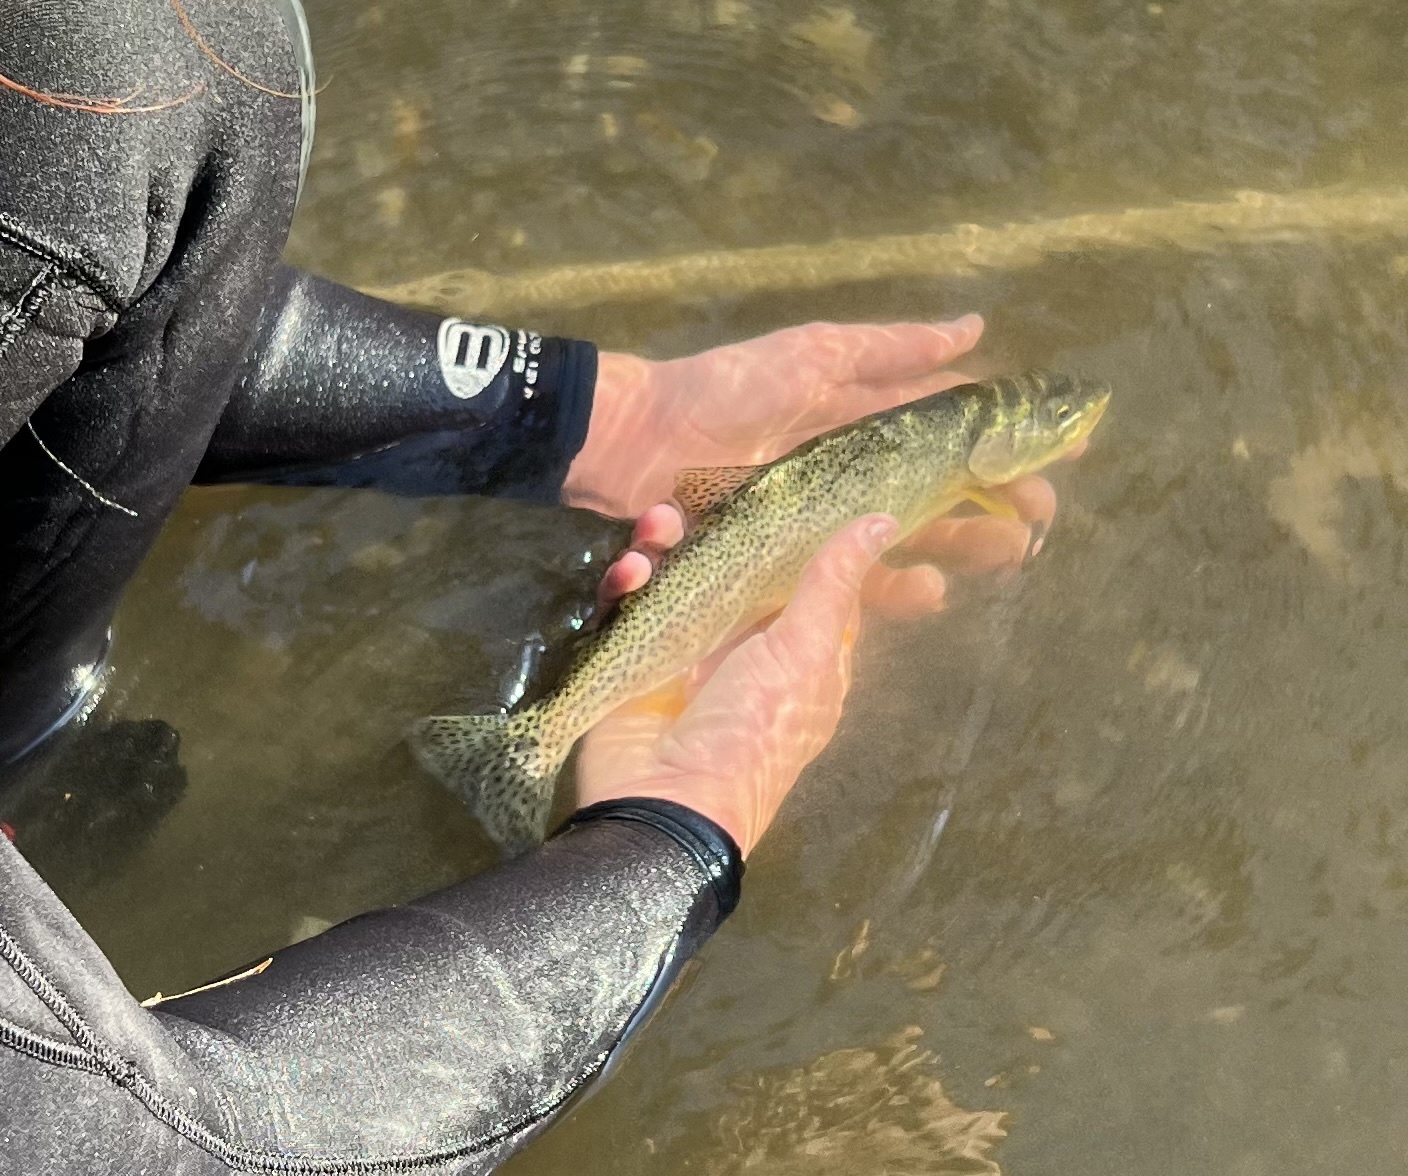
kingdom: Animalia
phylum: Chordata
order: Salmoniformes
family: Salmonidae
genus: Oncorhynchus
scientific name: Oncorhynchus clarkii
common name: Cutthroat trout
